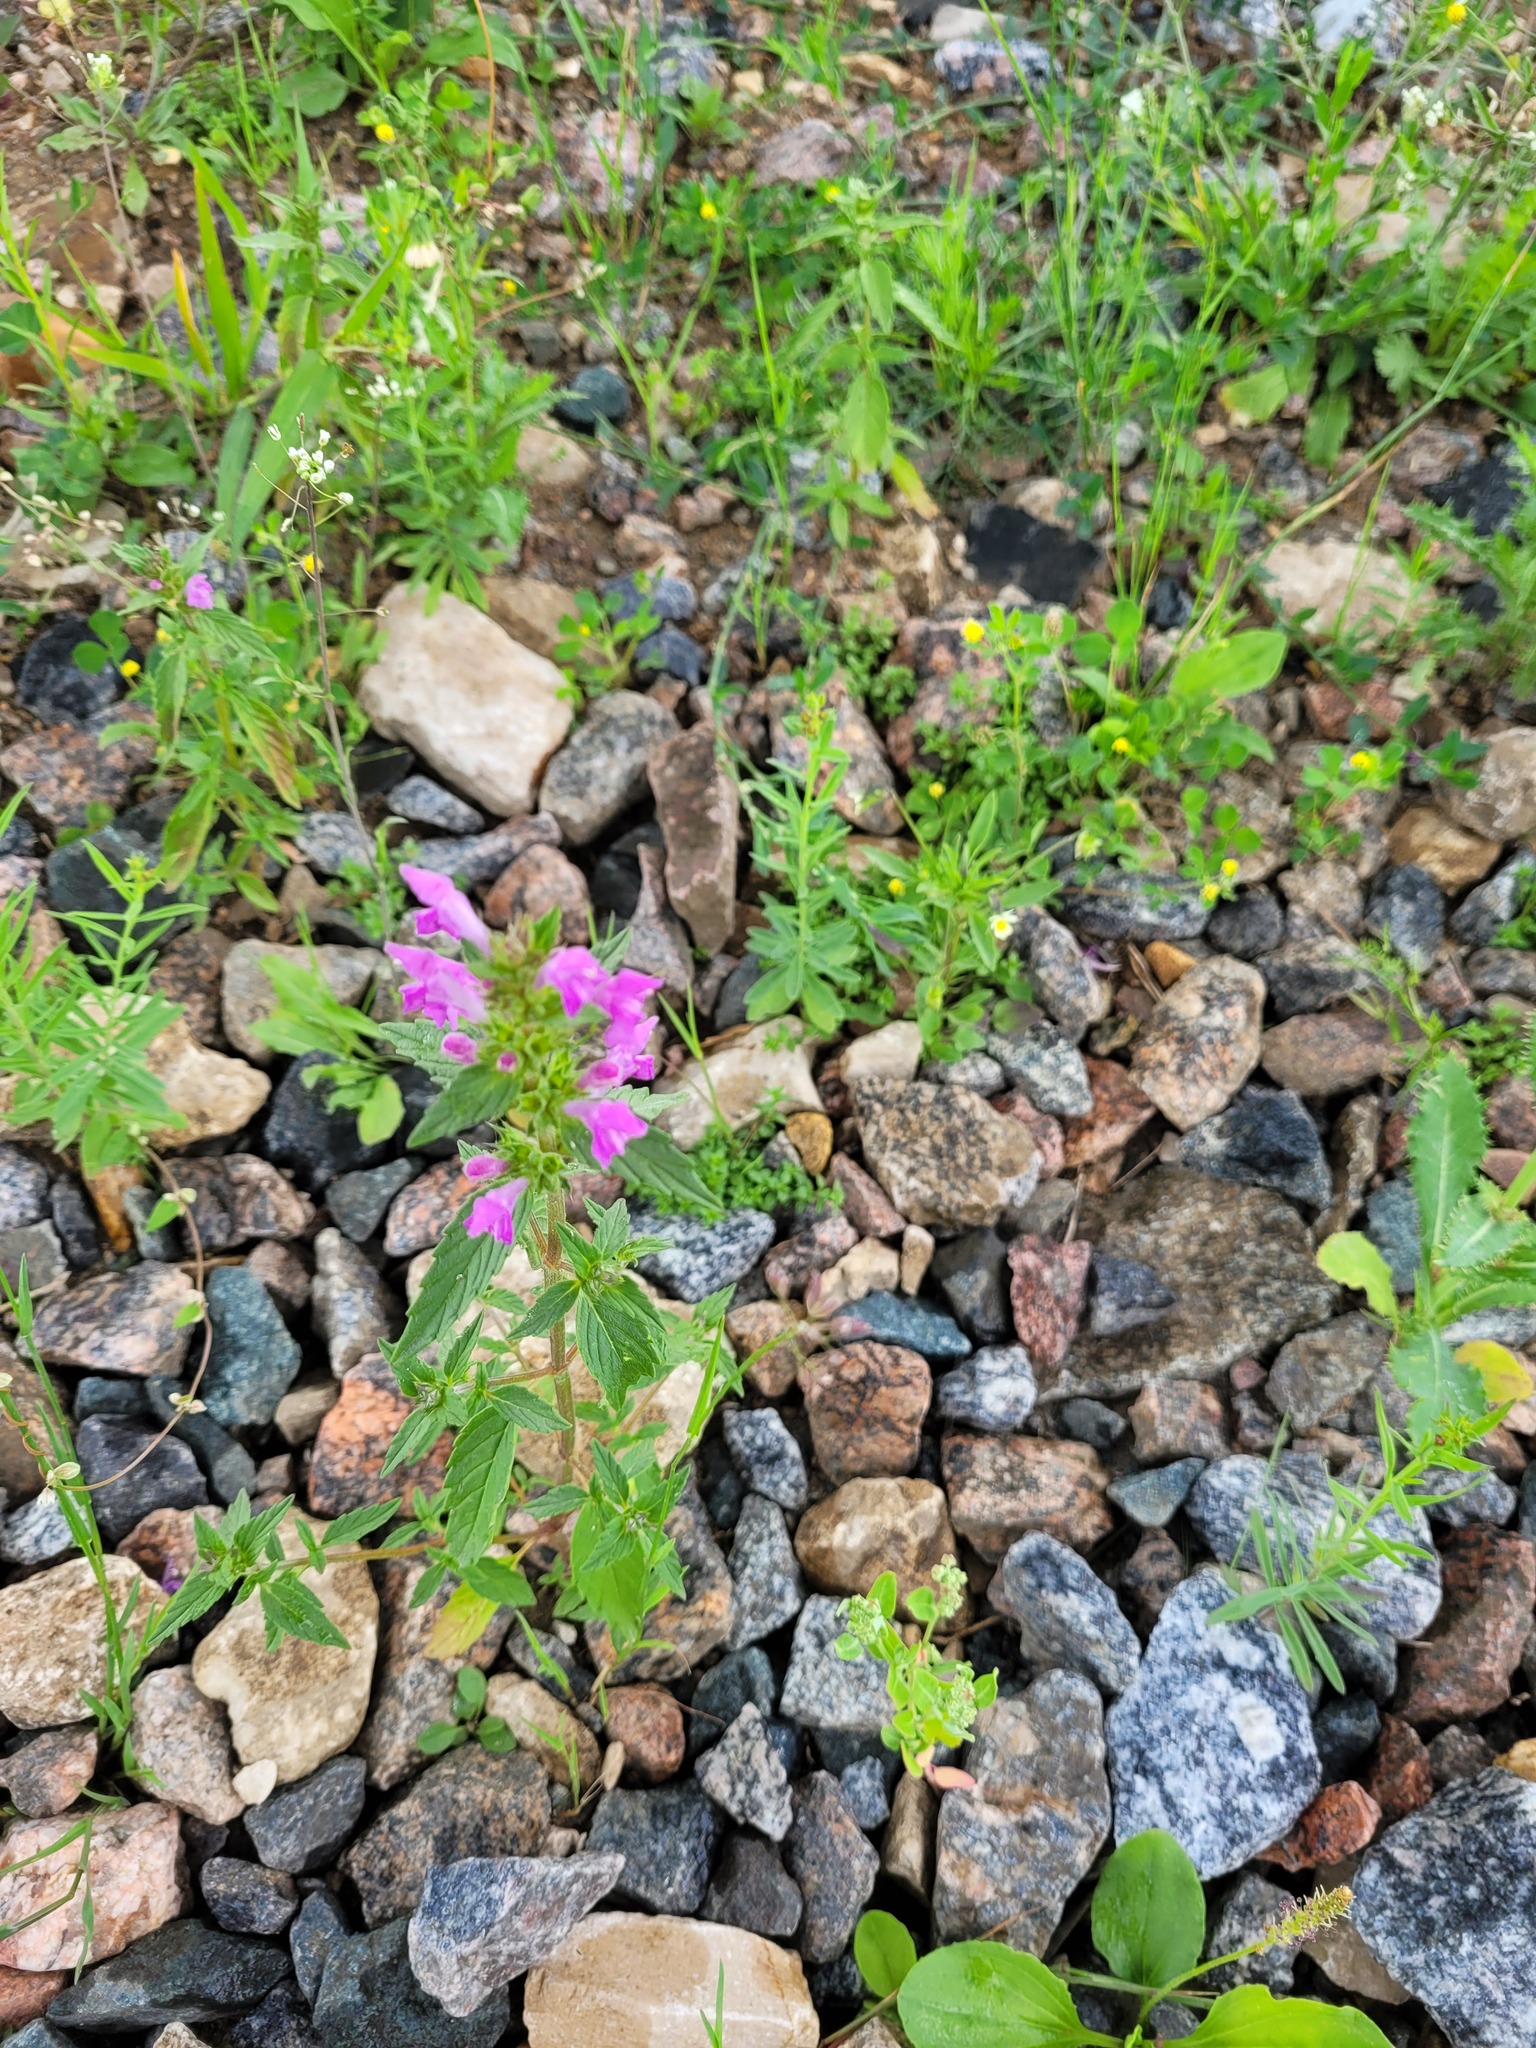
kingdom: Plantae
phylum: Tracheophyta
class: Magnoliopsida
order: Lamiales
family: Lamiaceae
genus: Galeopsis
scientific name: Galeopsis ladanum
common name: Broad-leaved hemp-nettle
